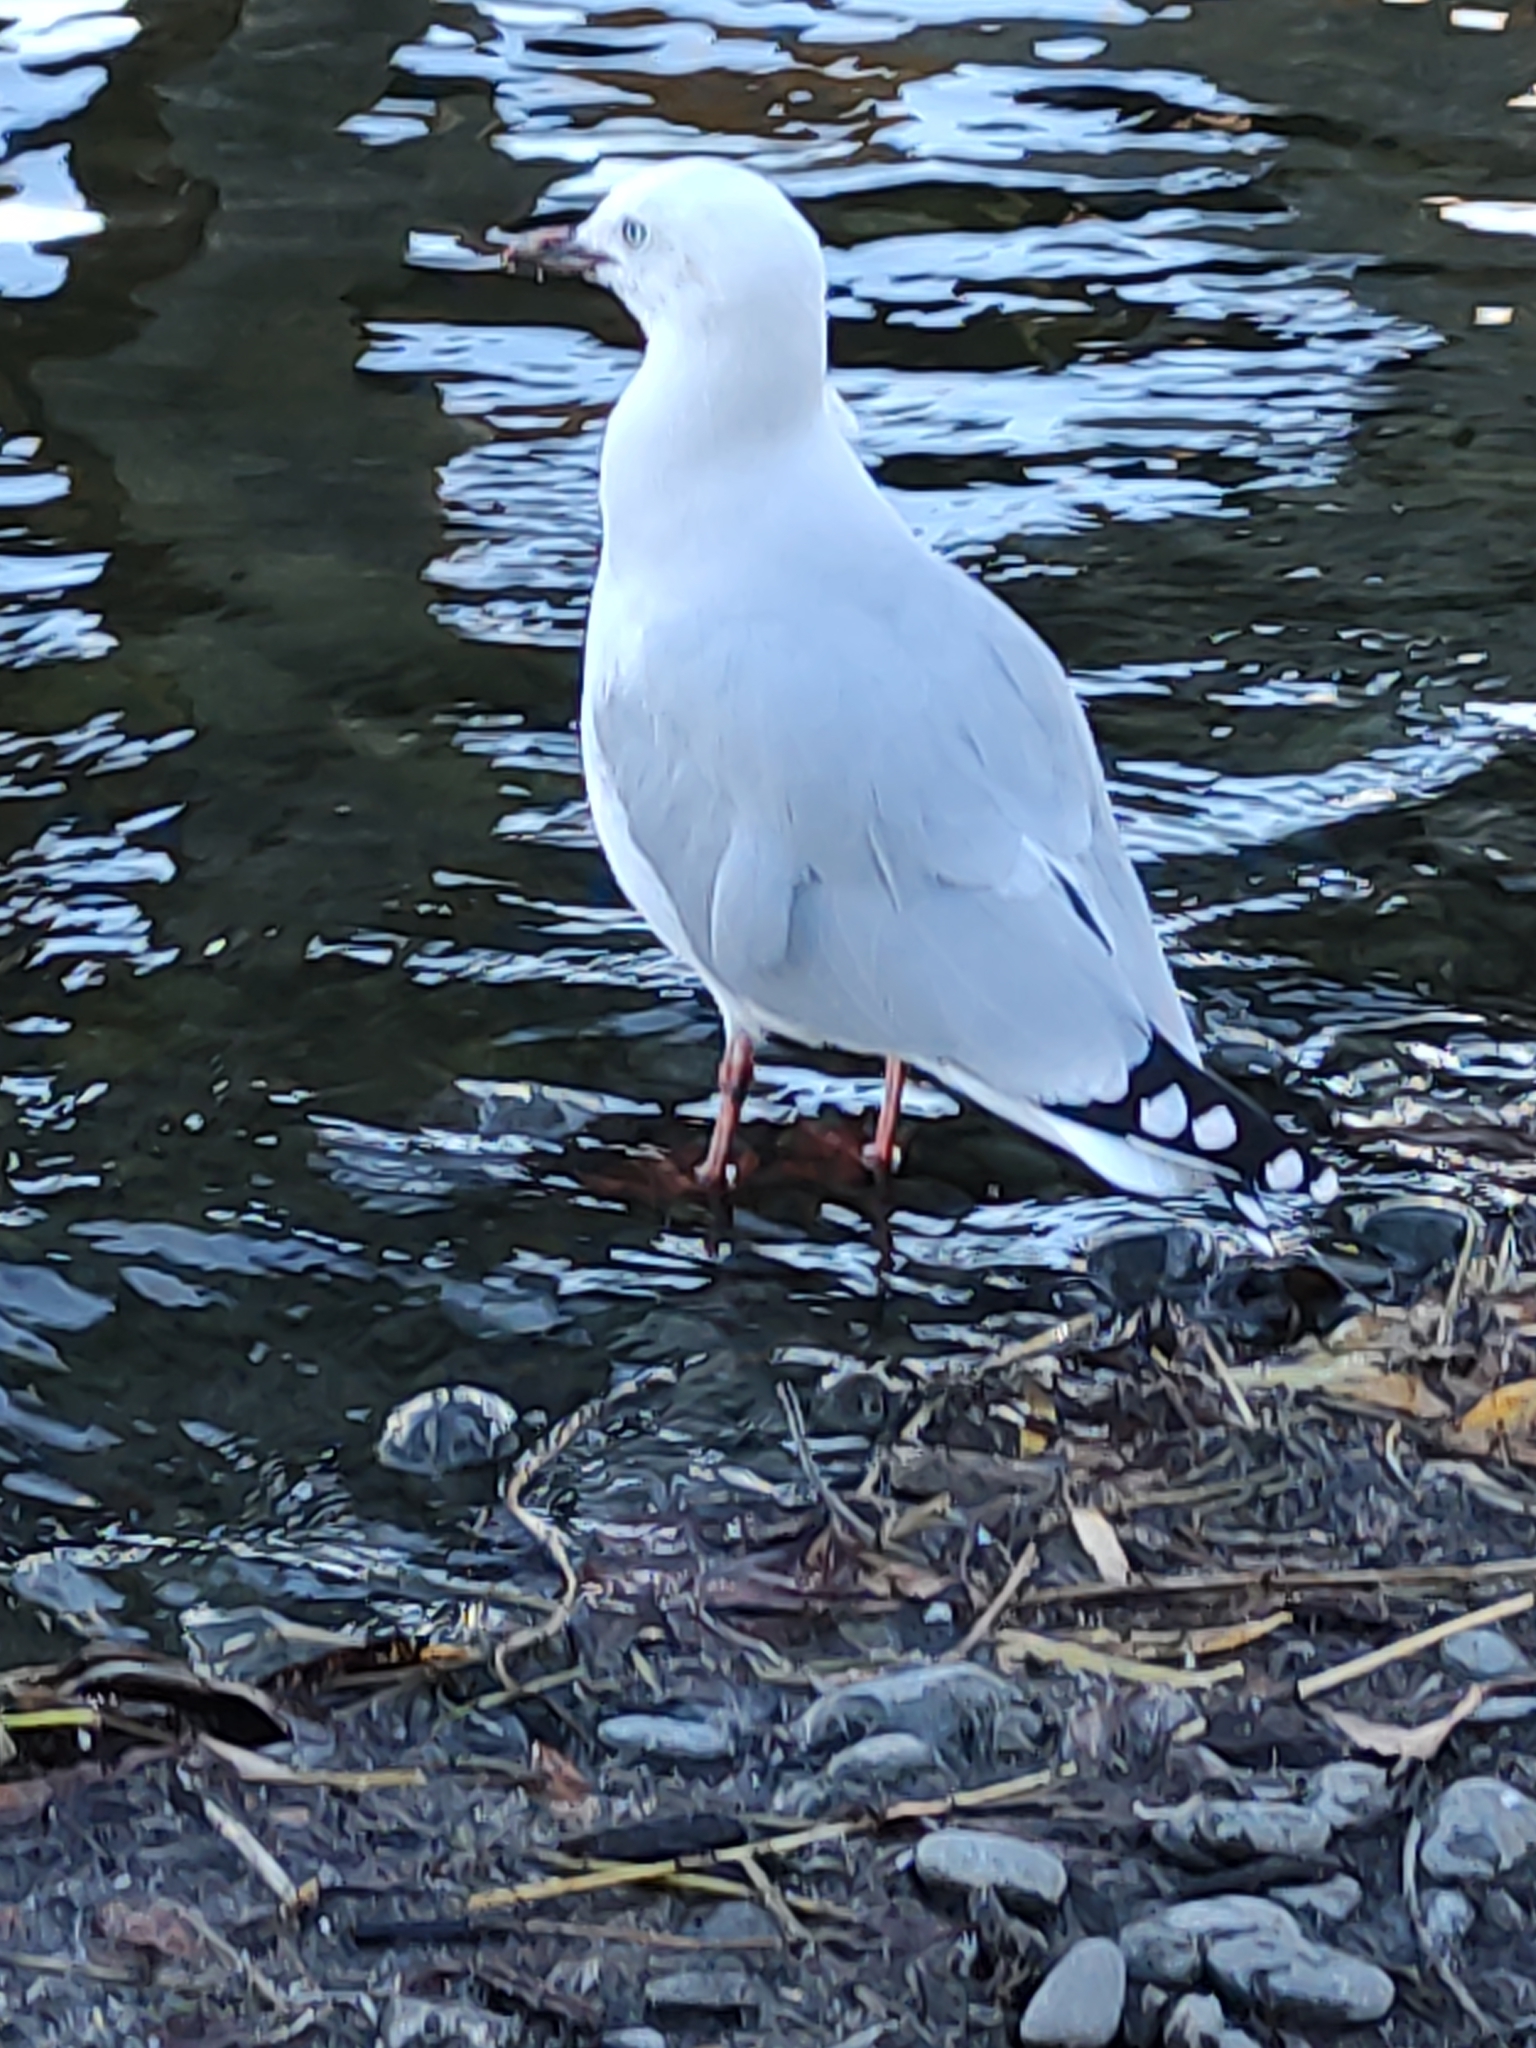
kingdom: Animalia
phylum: Chordata
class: Aves
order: Charadriiformes
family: Laridae
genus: Chroicocephalus
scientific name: Chroicocephalus novaehollandiae
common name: Silver gull
